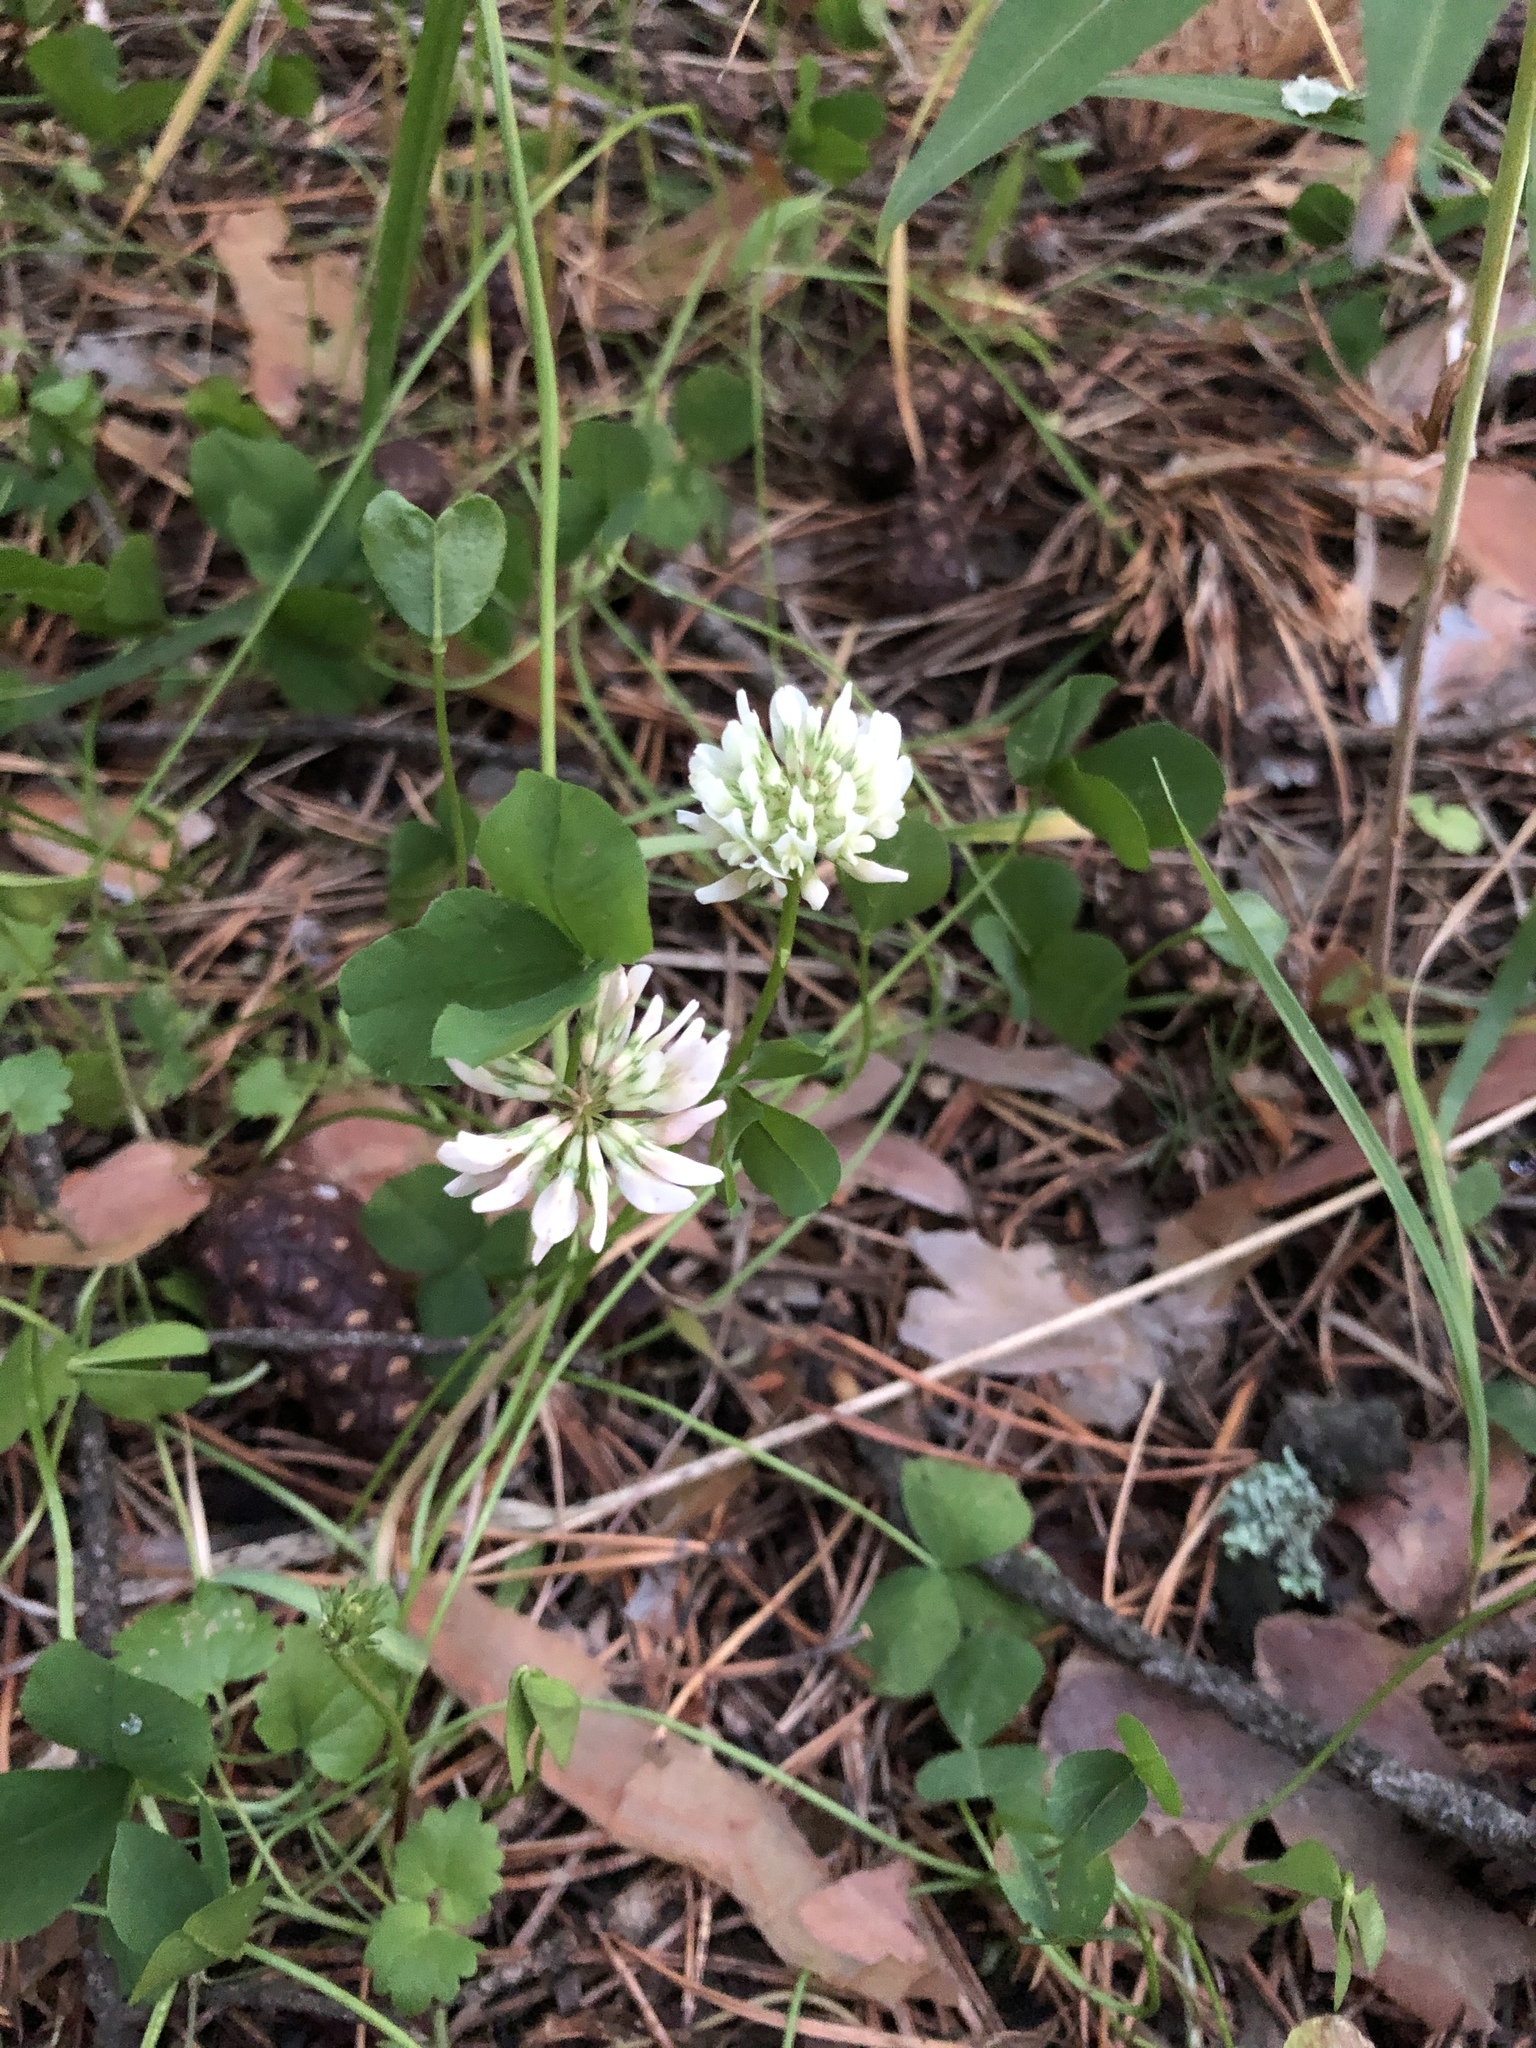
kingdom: Plantae
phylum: Tracheophyta
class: Magnoliopsida
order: Fabales
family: Fabaceae
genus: Trifolium
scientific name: Trifolium repens
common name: White clover
